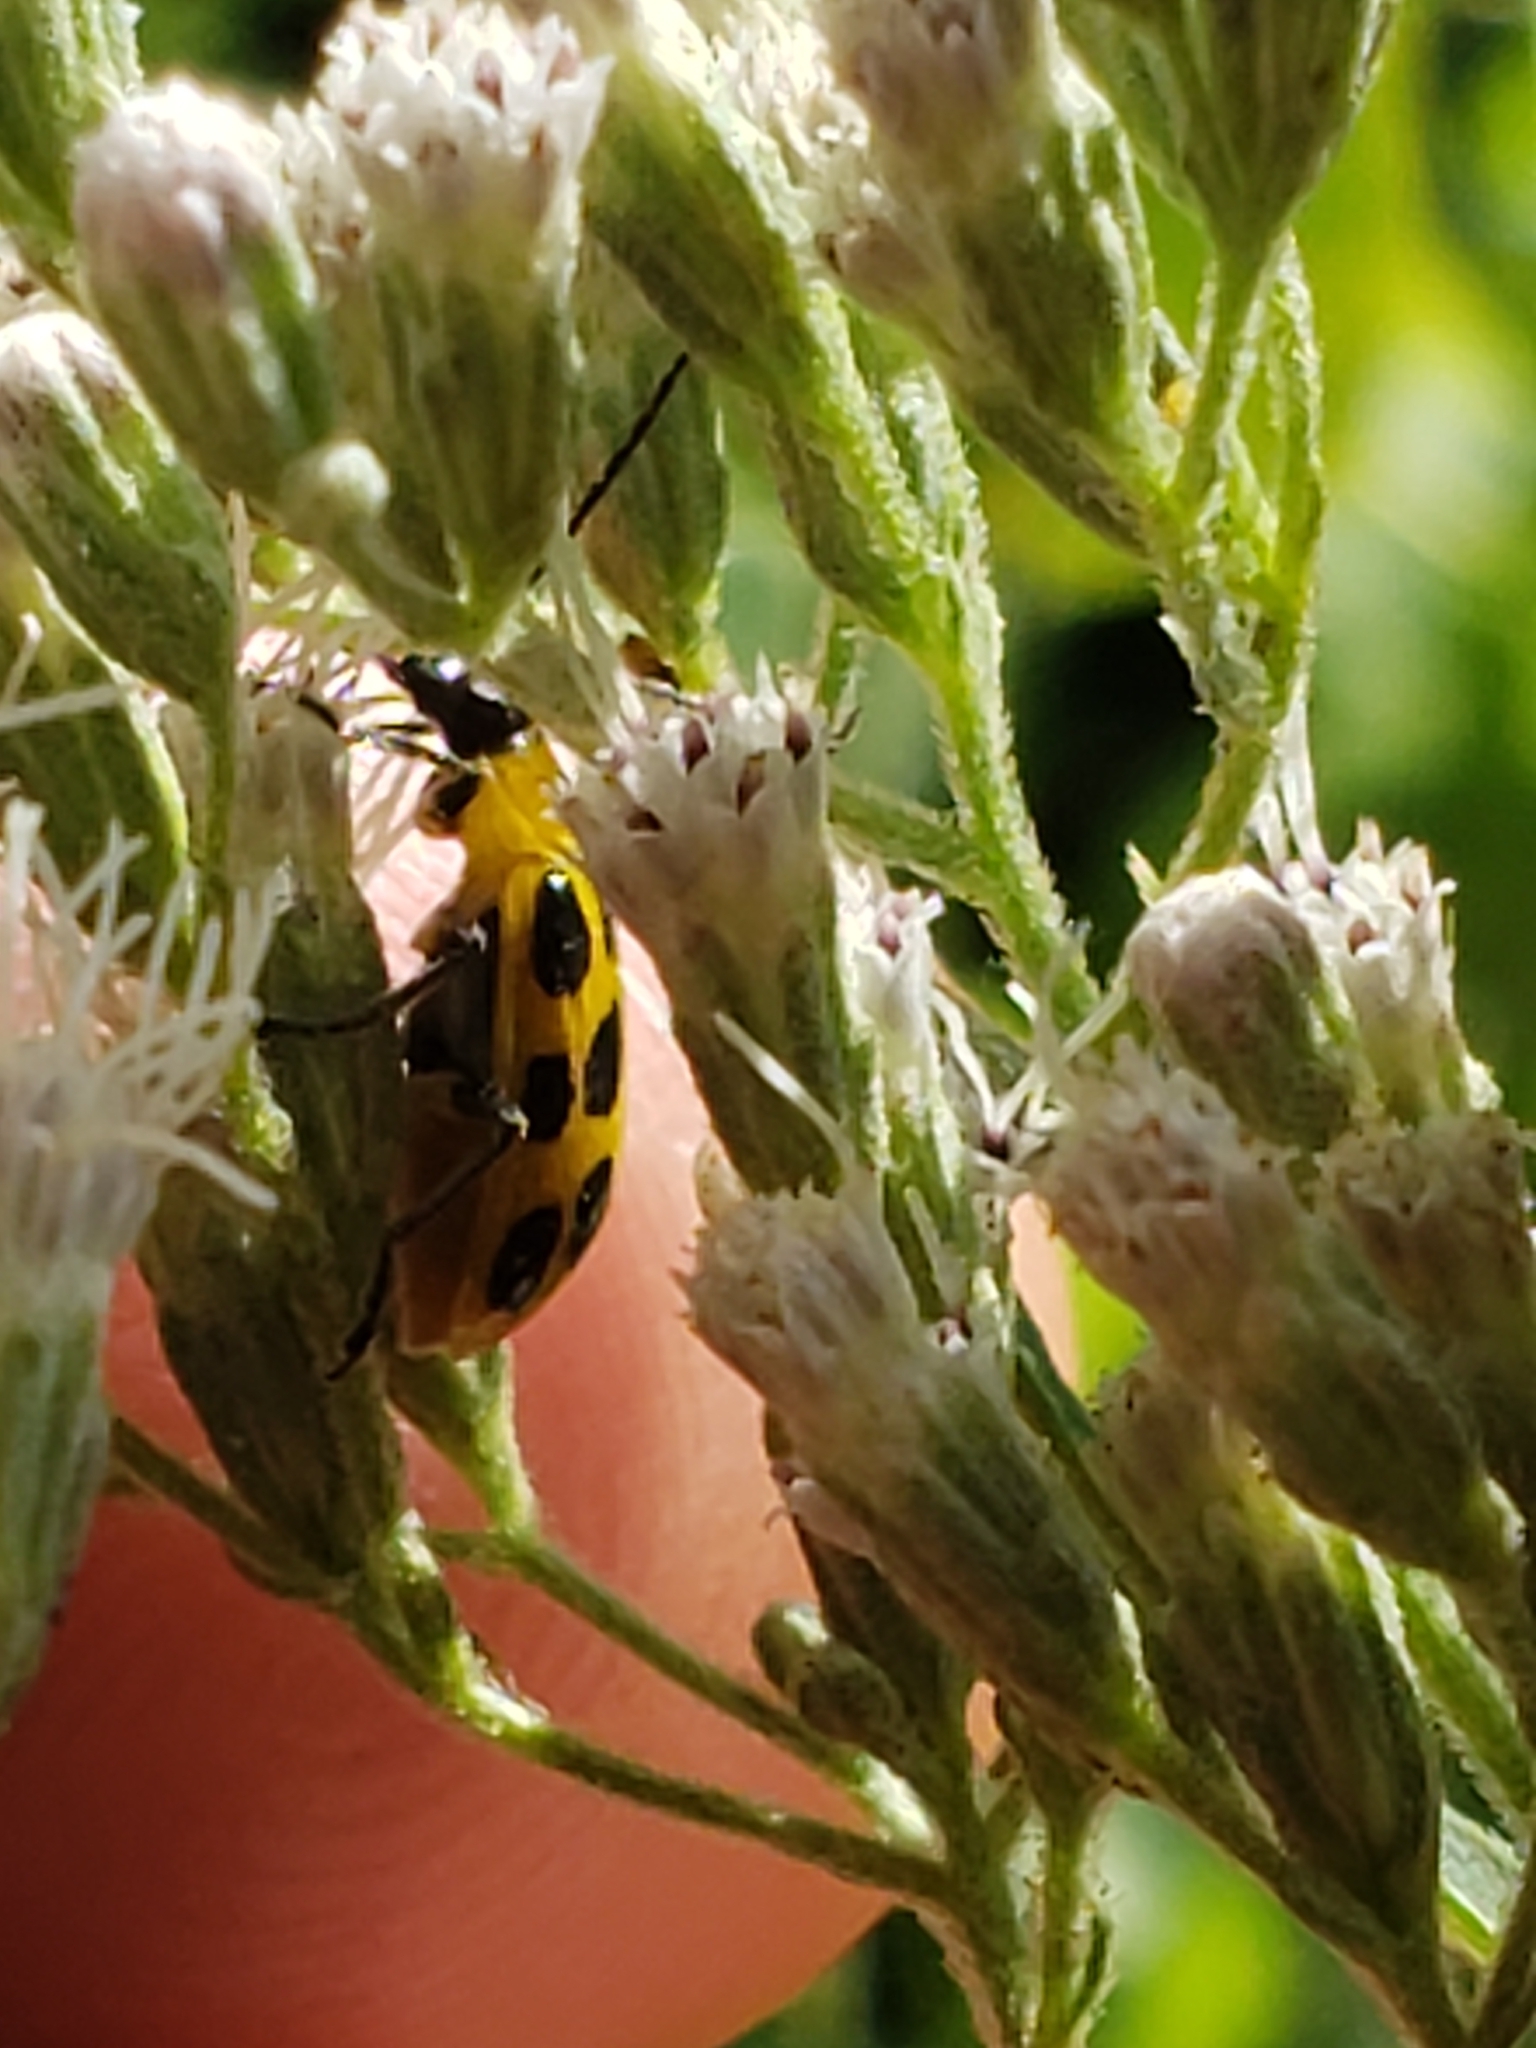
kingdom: Animalia
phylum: Arthropoda
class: Insecta
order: Coleoptera
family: Chrysomelidae
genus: Diabrotica
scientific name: Diabrotica undecimpunctata
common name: Spotted cucumber beetle
